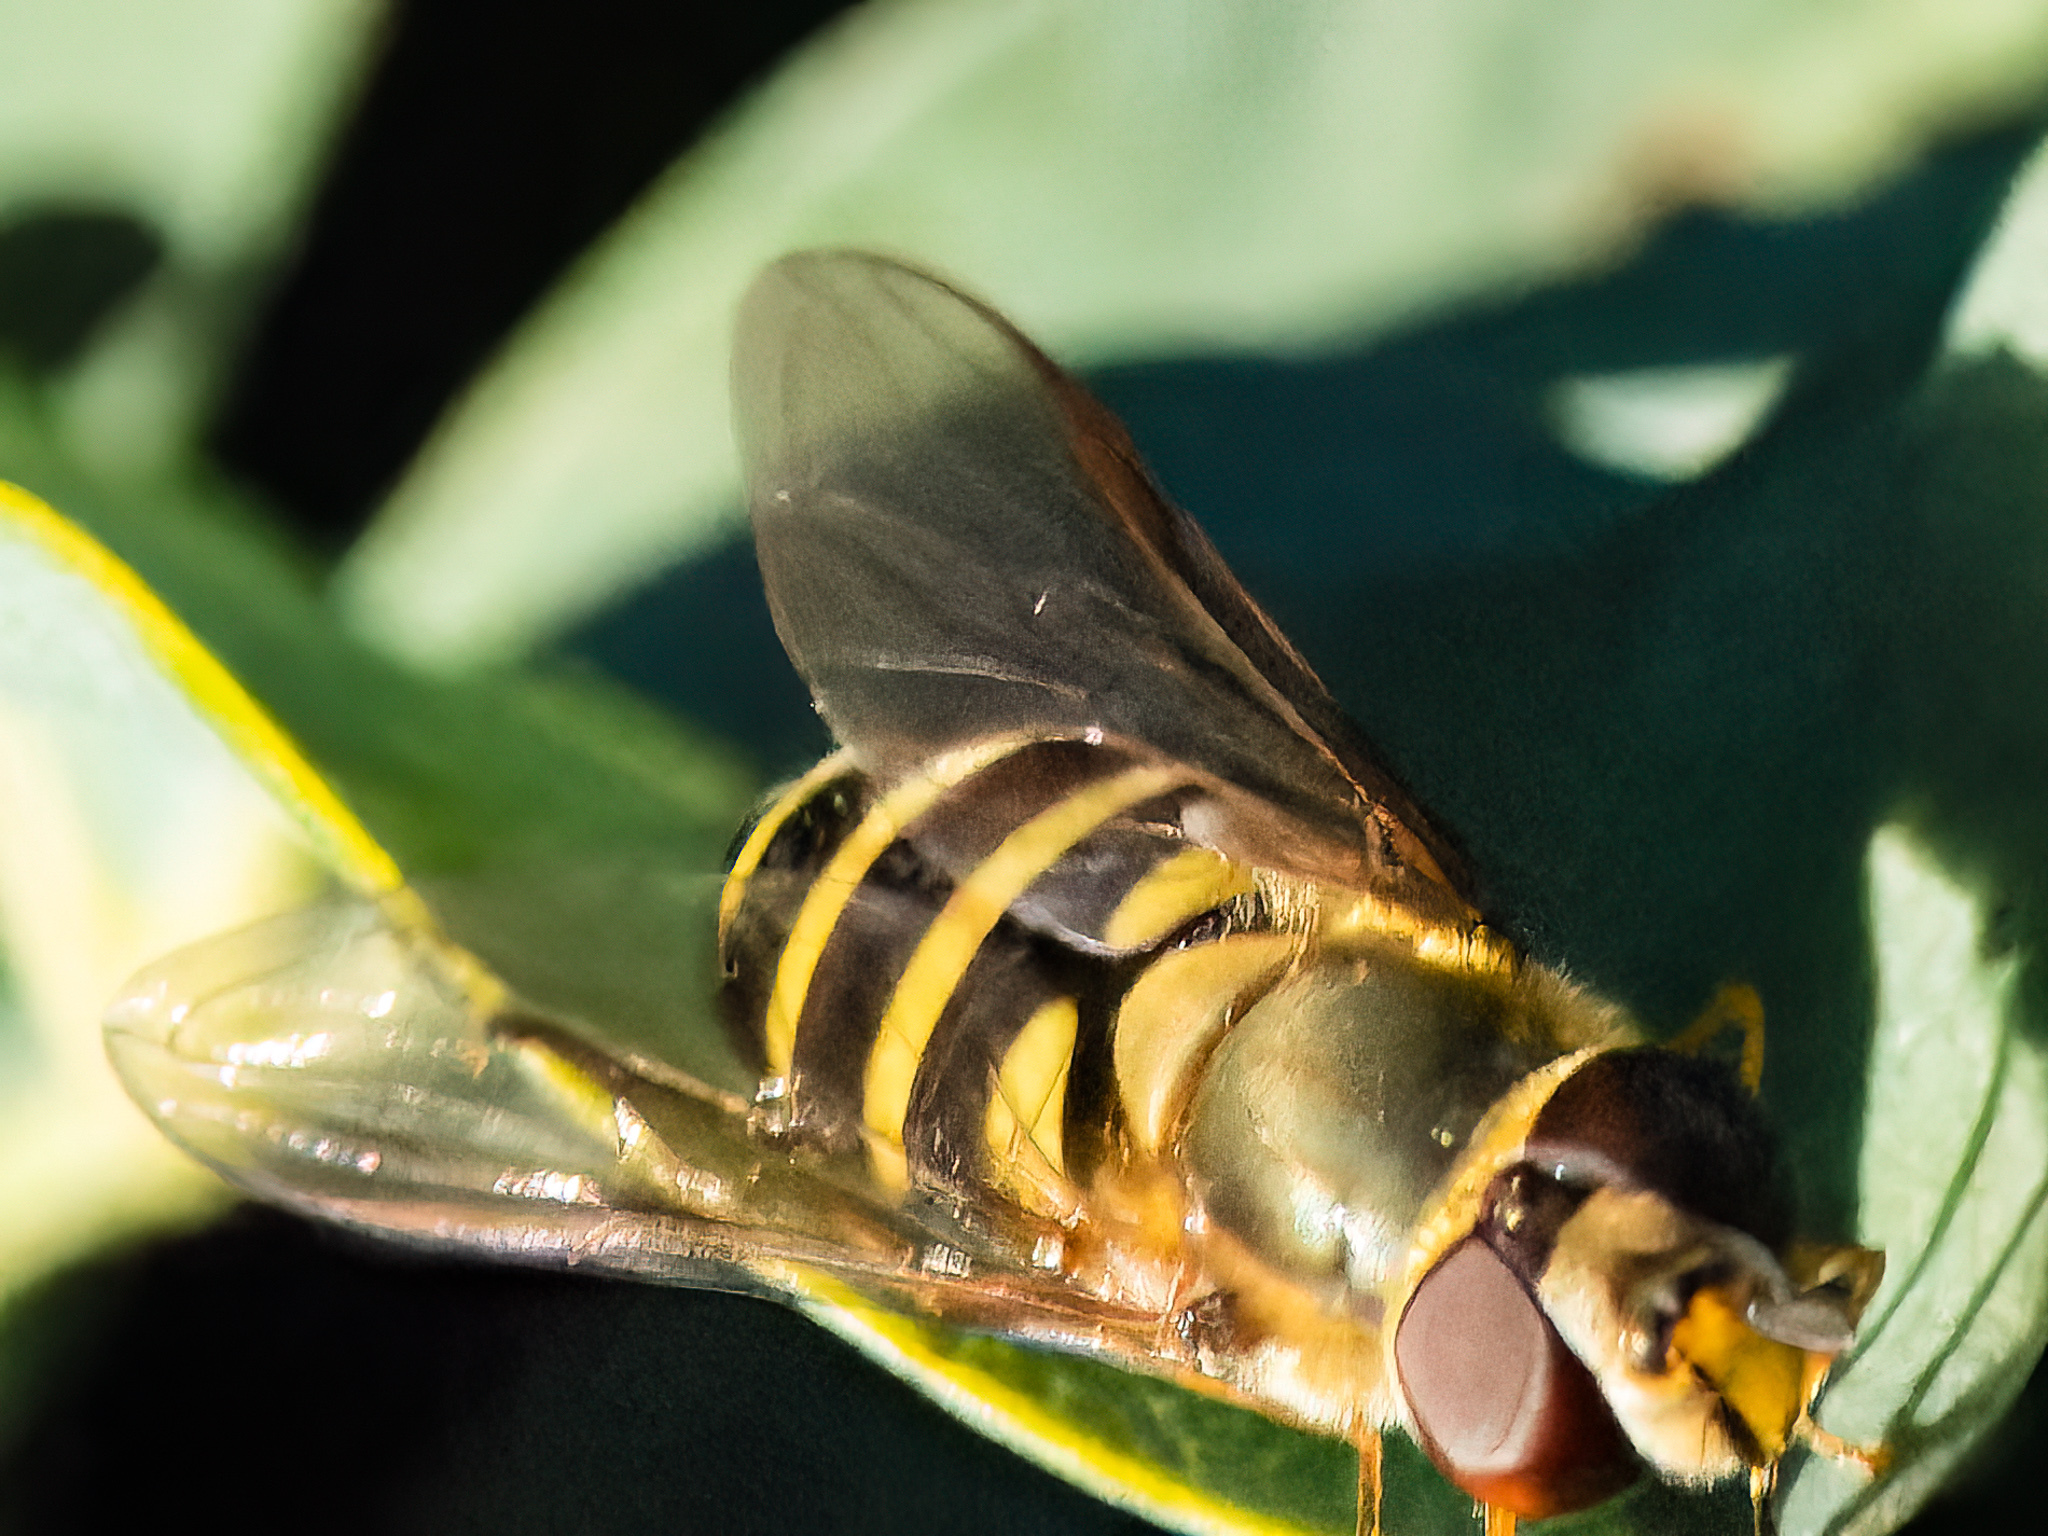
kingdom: Animalia
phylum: Arthropoda
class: Insecta
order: Diptera
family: Syrphidae
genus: Syrphus
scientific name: Syrphus
